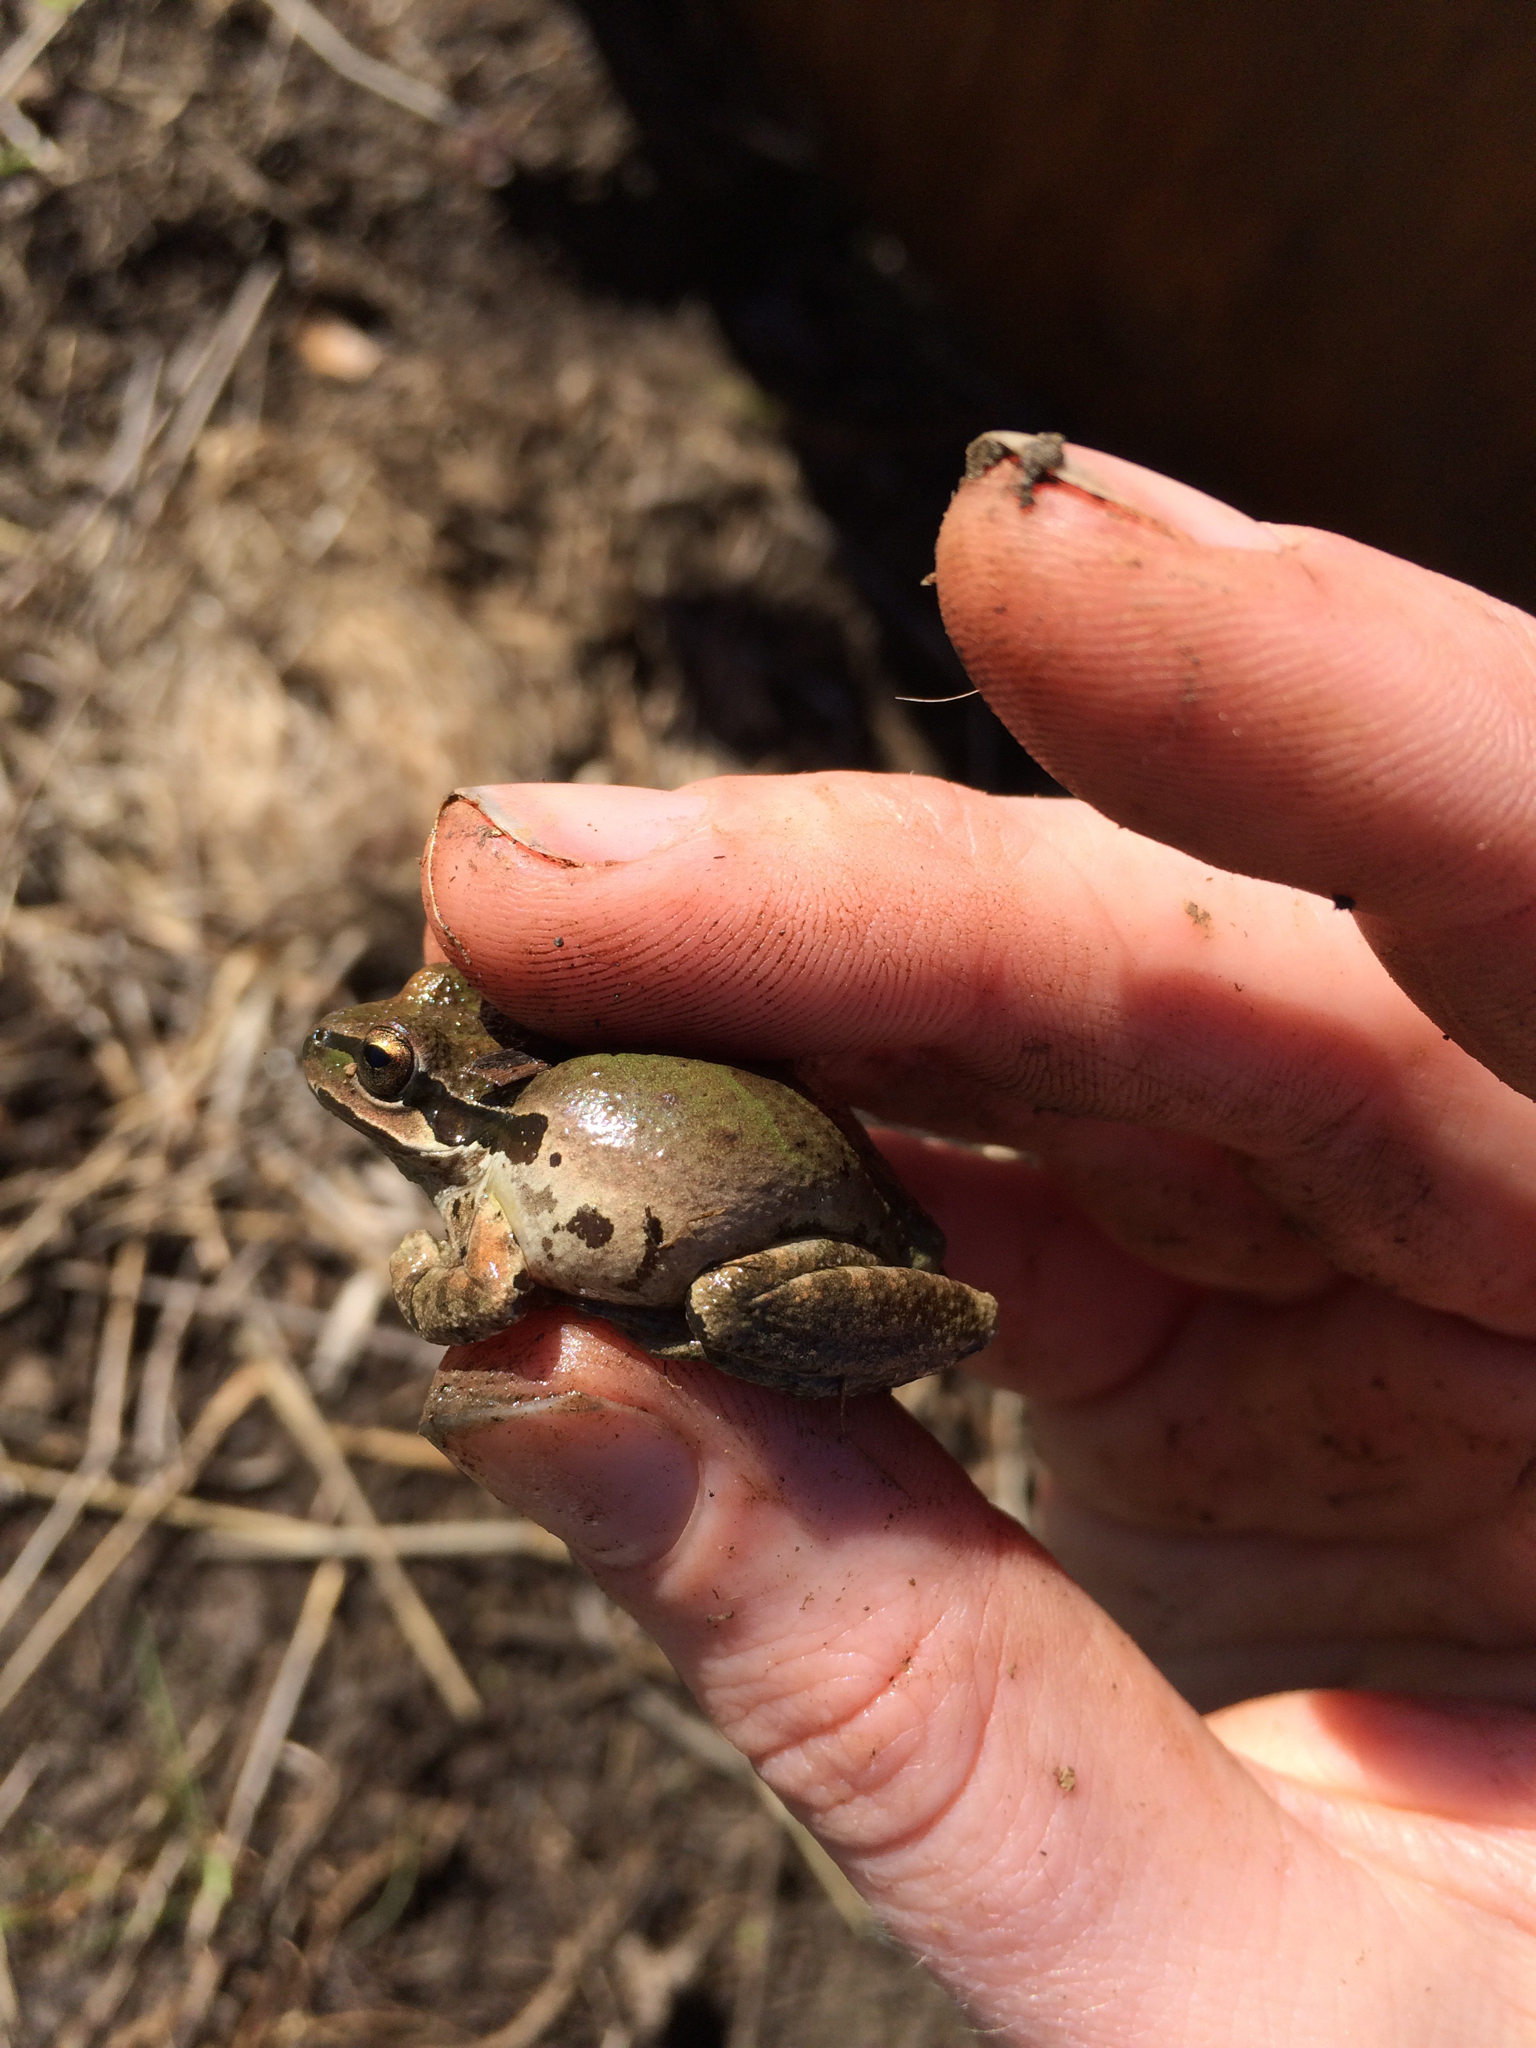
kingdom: Animalia
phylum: Chordata
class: Amphibia
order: Anura
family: Hylidae
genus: Pseudacris
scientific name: Pseudacris regilla
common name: Pacific chorus frog
